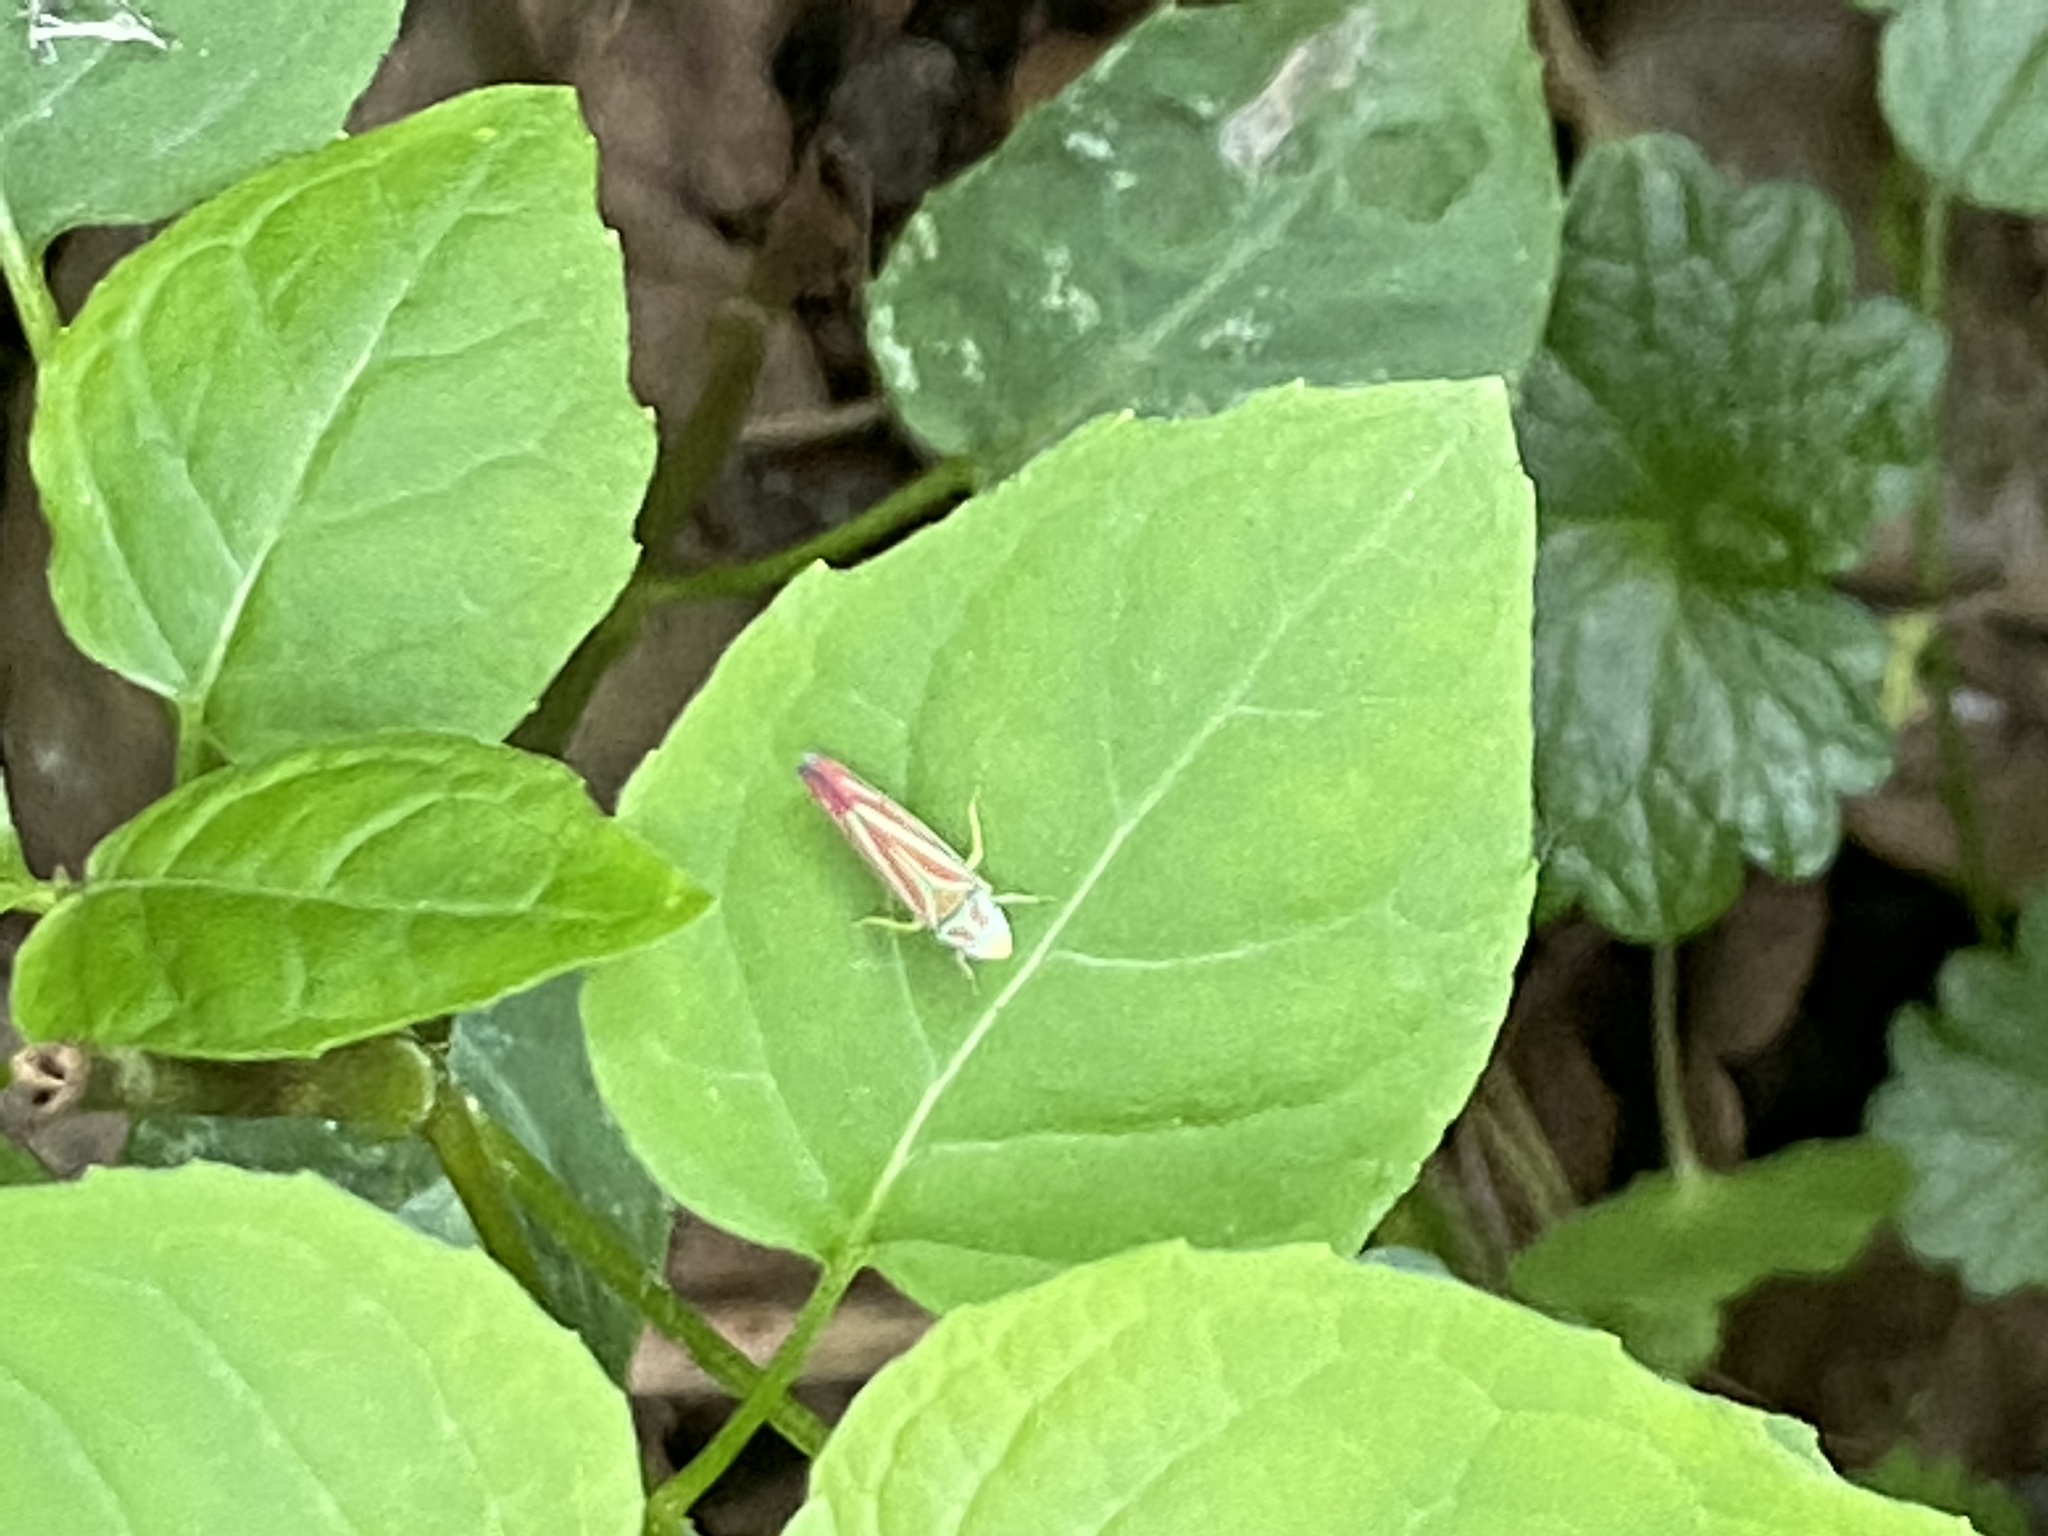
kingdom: Animalia
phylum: Arthropoda
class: Insecta
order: Hemiptera
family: Cicadellidae
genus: Graphocephala
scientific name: Graphocephala coccinea
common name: Candy-striped leafhopper
